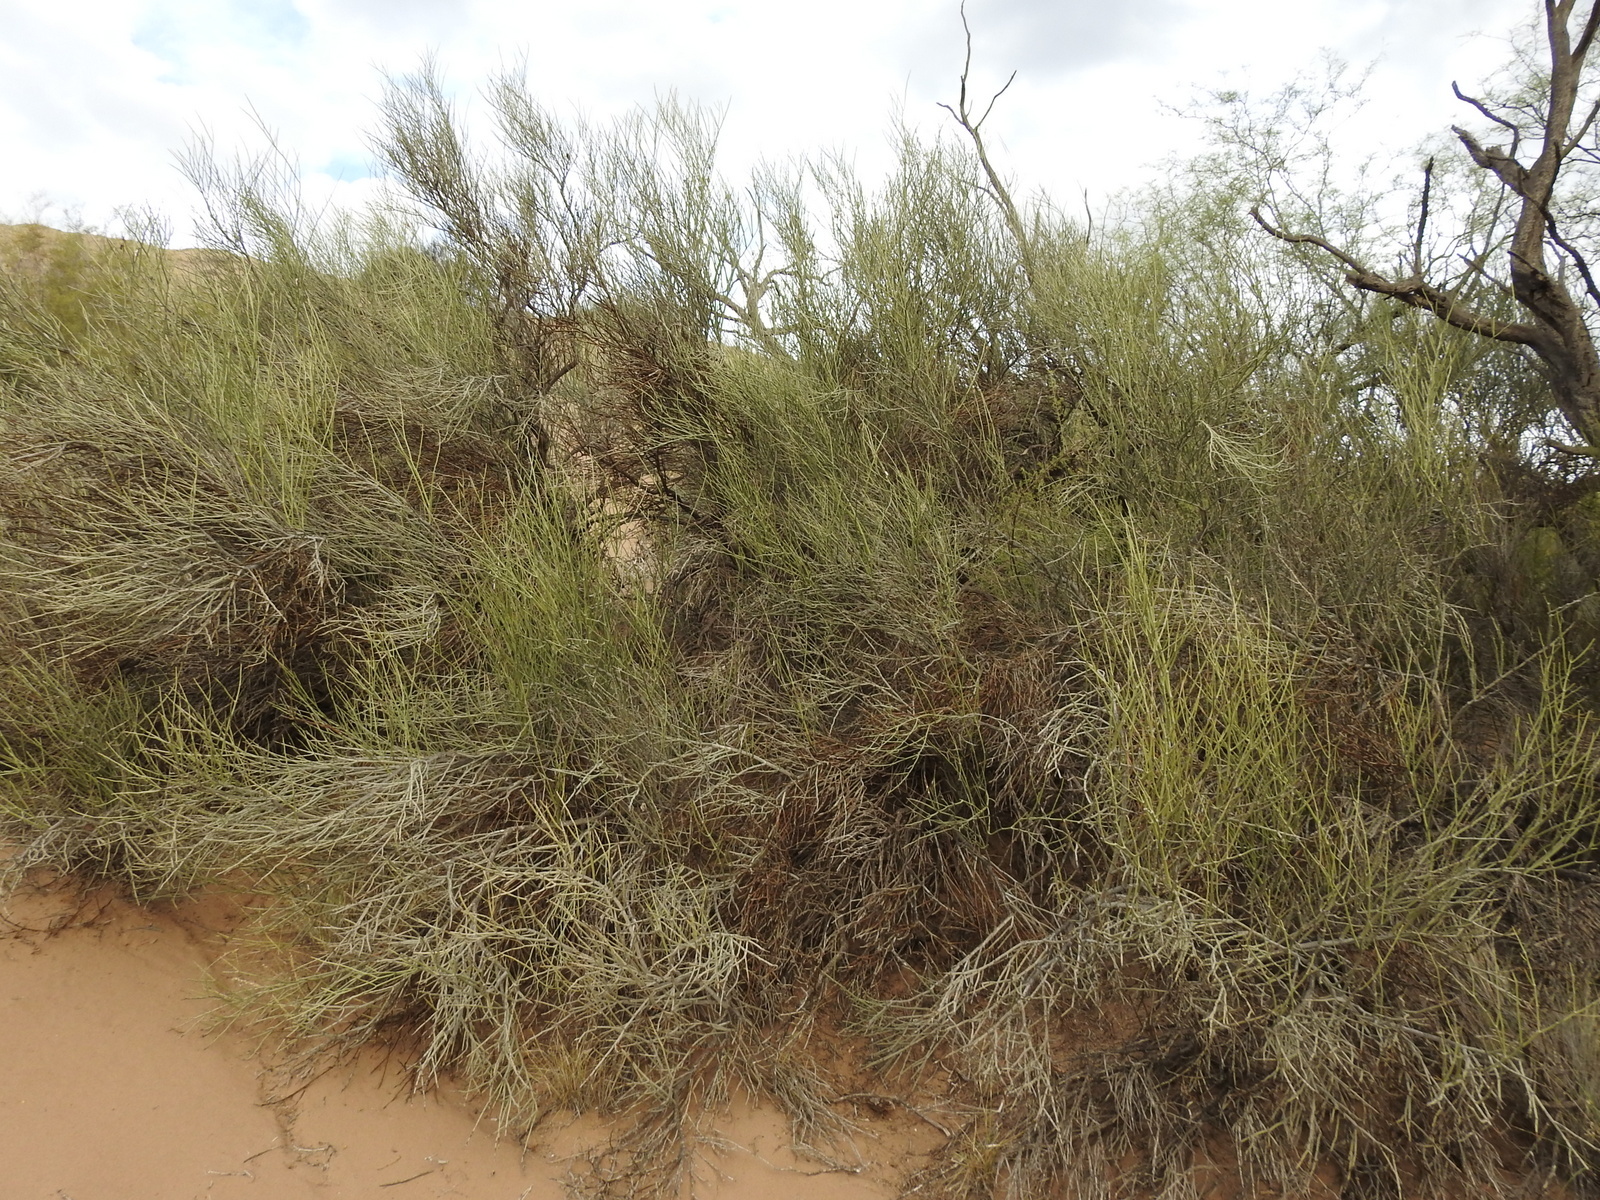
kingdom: Plantae
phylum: Tracheophyta
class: Magnoliopsida
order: Zygophyllales
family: Zygophyllaceae
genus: Bulnesia
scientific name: Bulnesia retama
